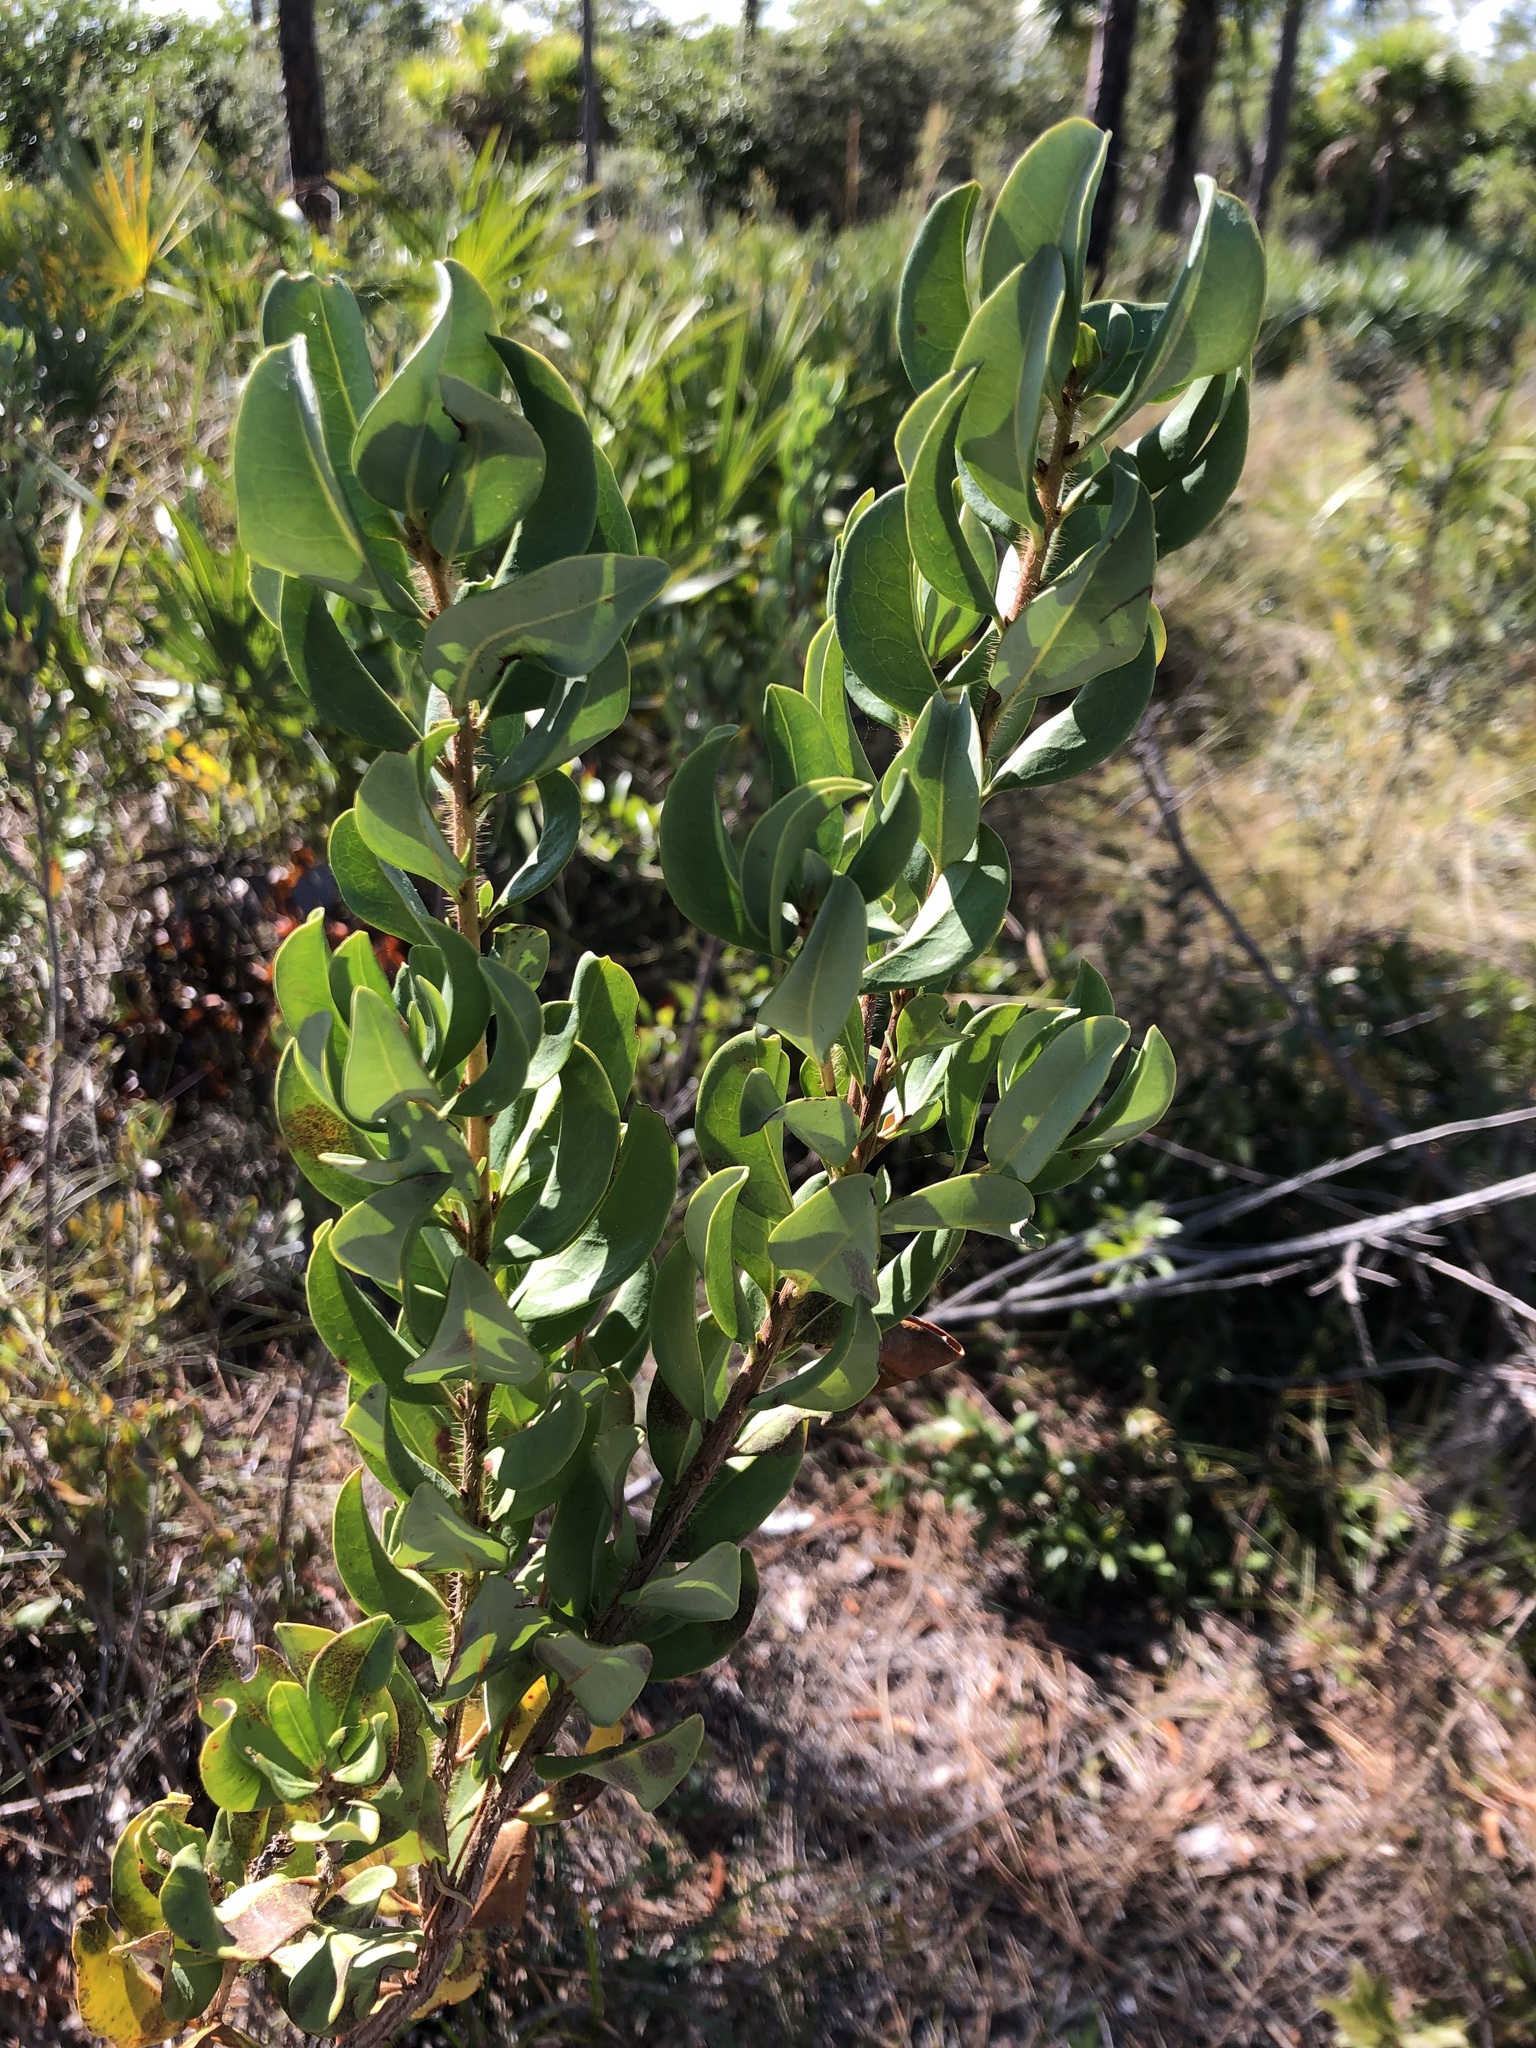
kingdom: Plantae
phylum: Tracheophyta
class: Magnoliopsida
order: Ericales
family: Ericaceae
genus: Bejaria
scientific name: Bejaria racemosa
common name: Tarflower
